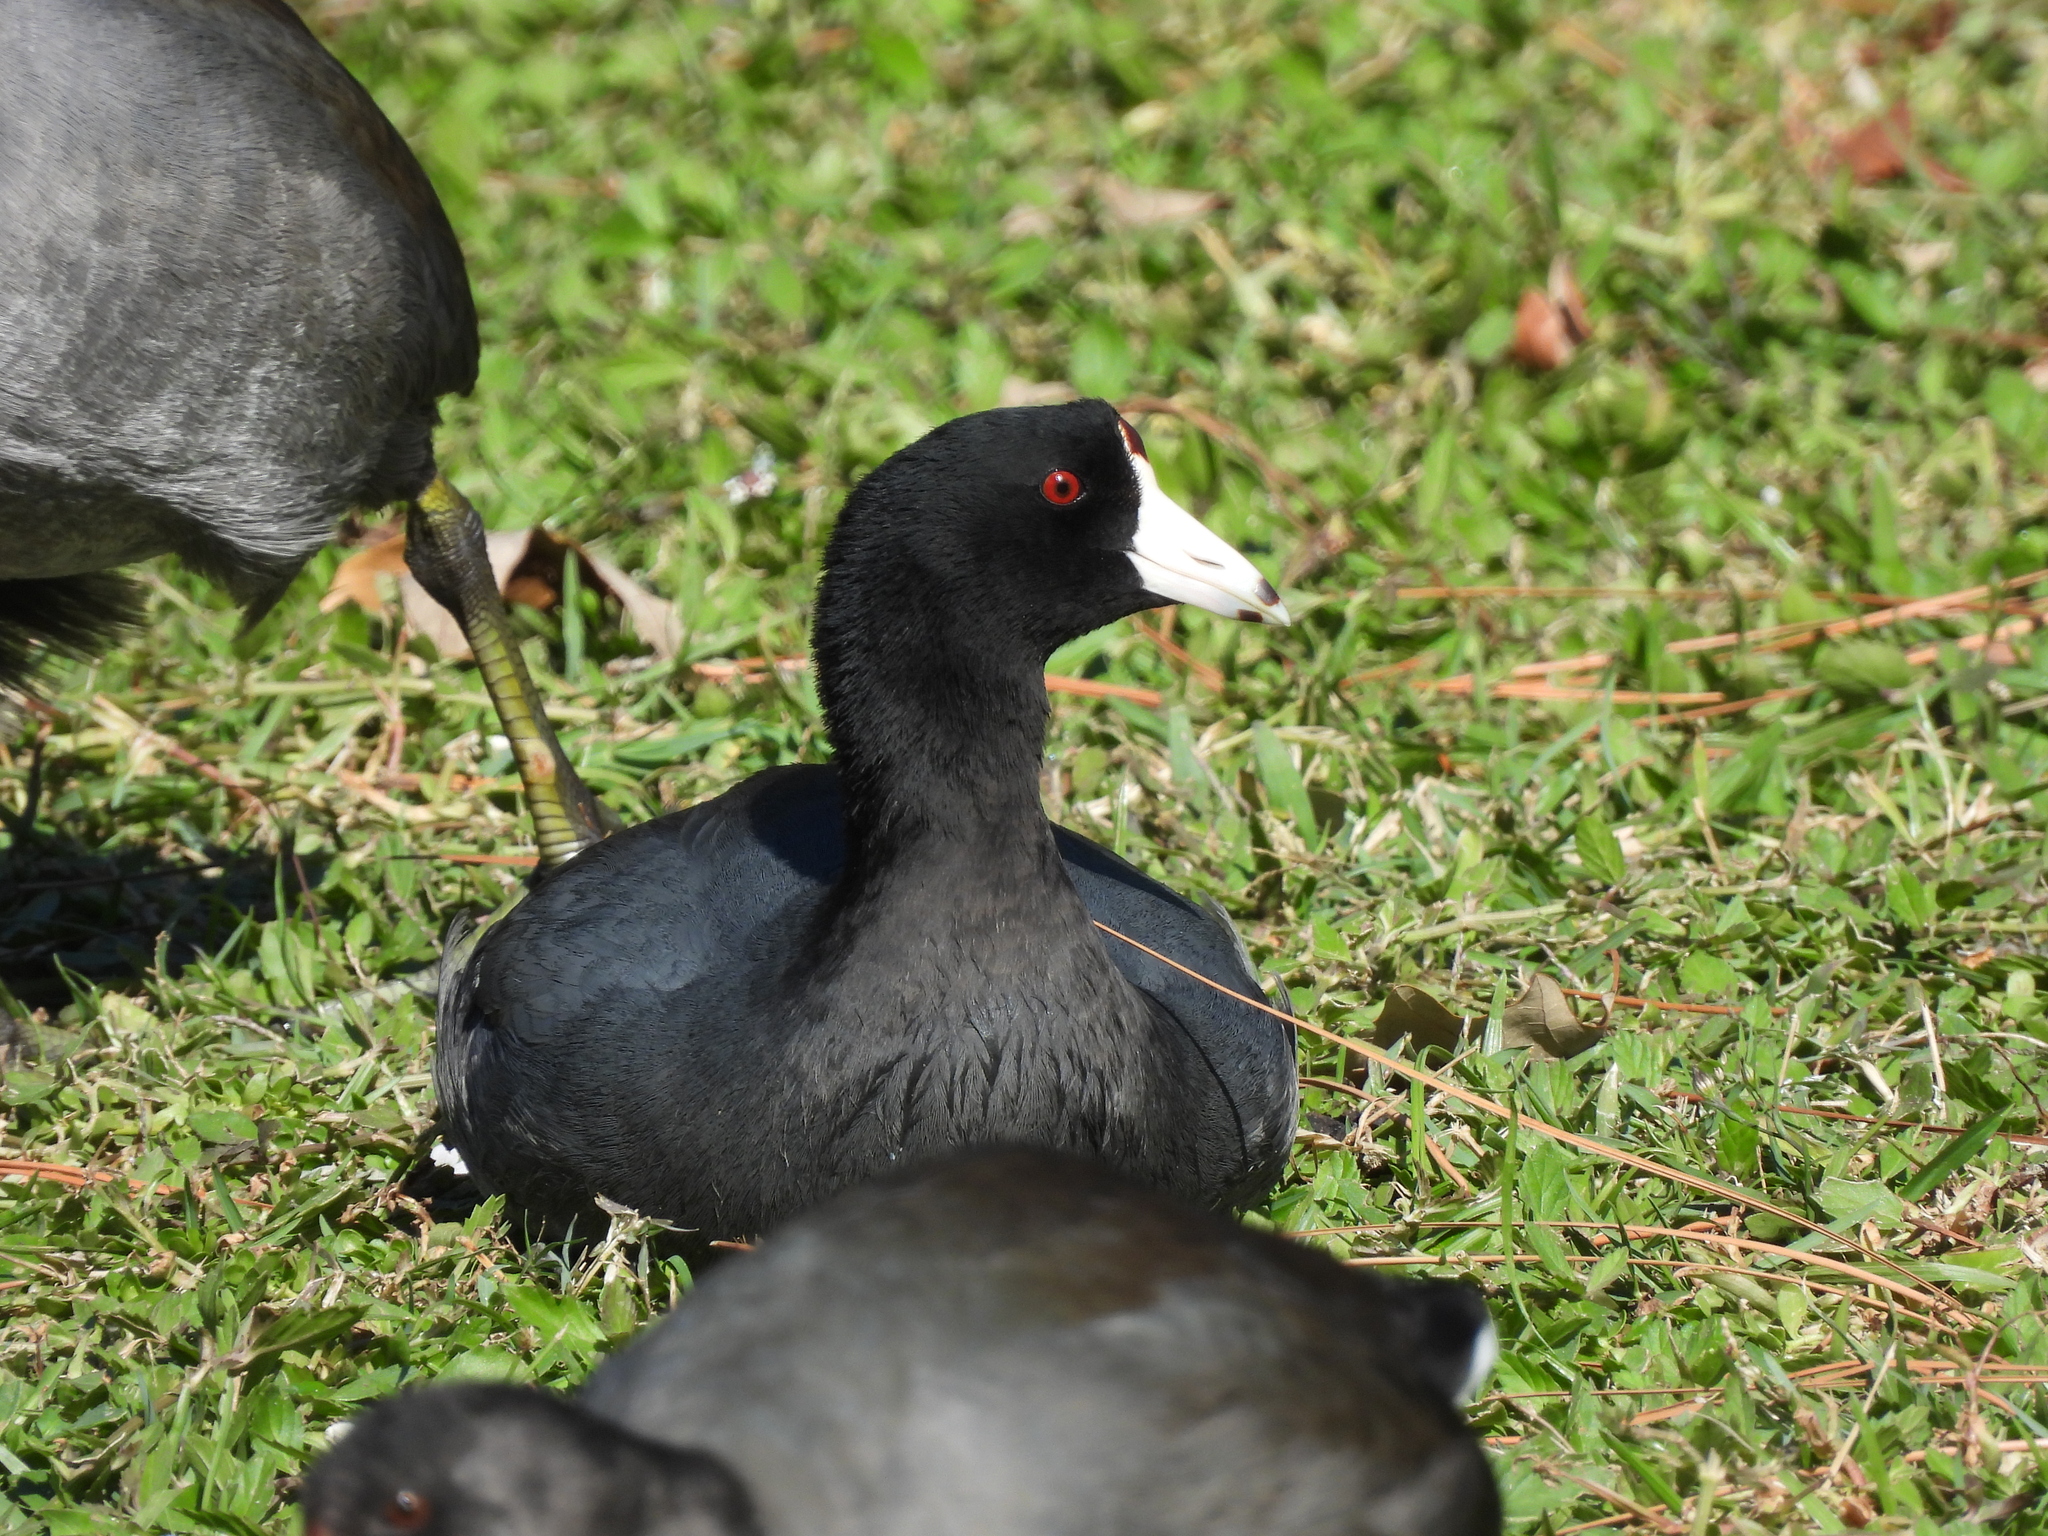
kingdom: Animalia
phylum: Chordata
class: Aves
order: Gruiformes
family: Rallidae
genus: Fulica
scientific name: Fulica americana
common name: American coot
